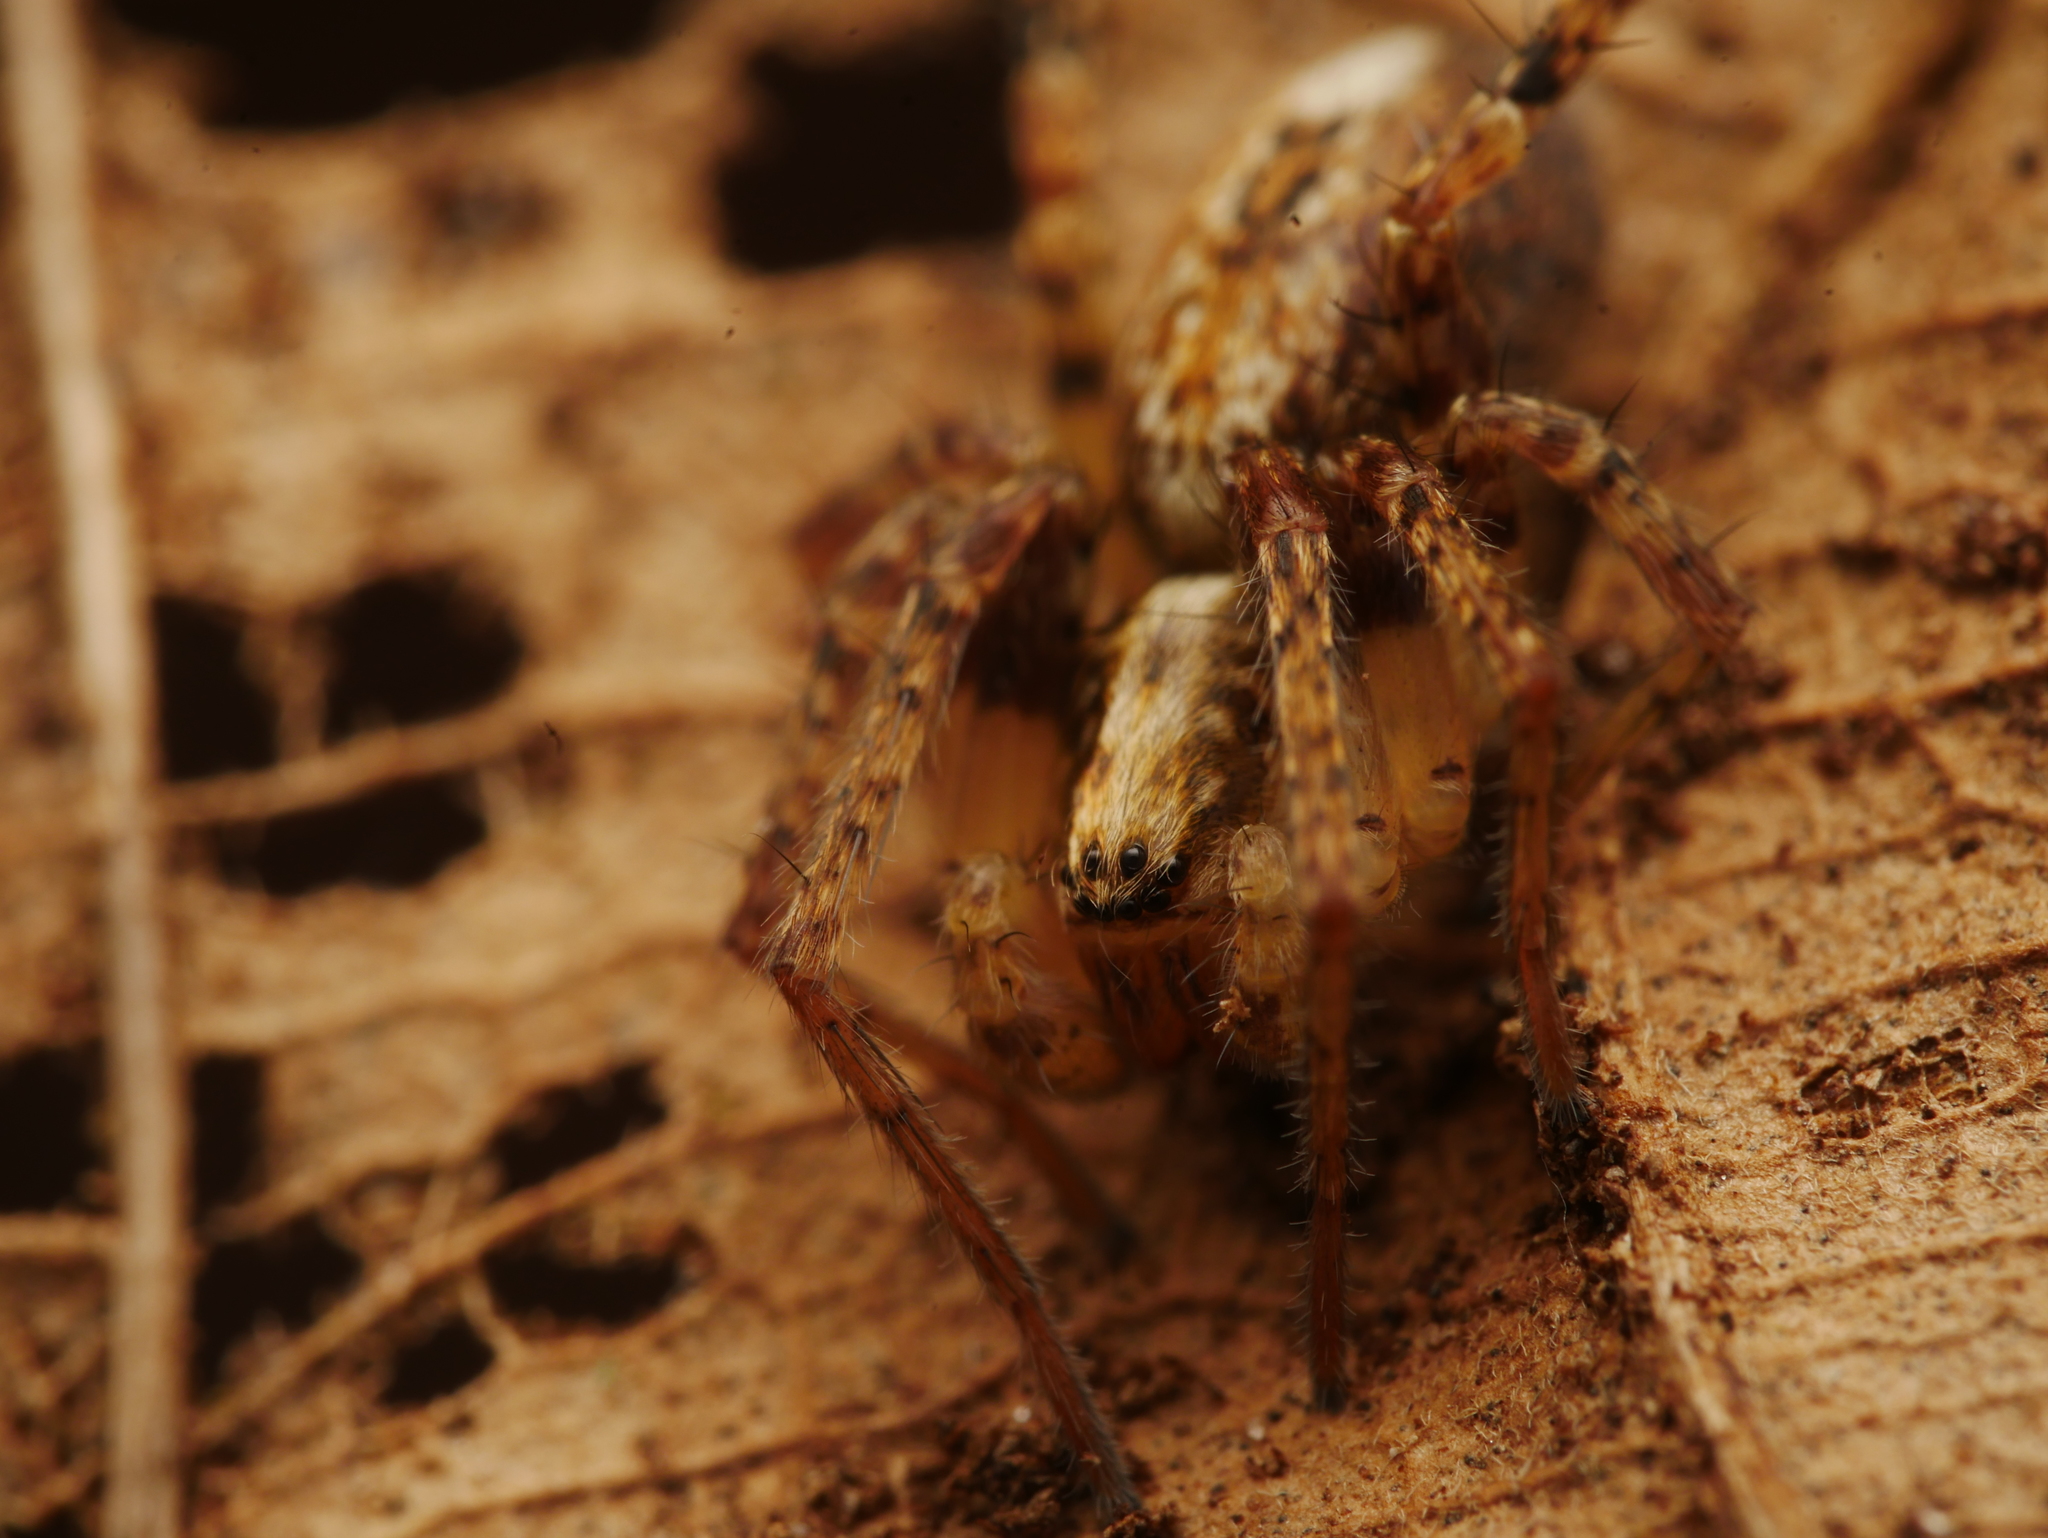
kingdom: Animalia
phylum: Arthropoda
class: Arachnida
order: Araneae
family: Anyphaenidae
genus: Anyphaena
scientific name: Anyphaena accentuata
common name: Buzzing spider
